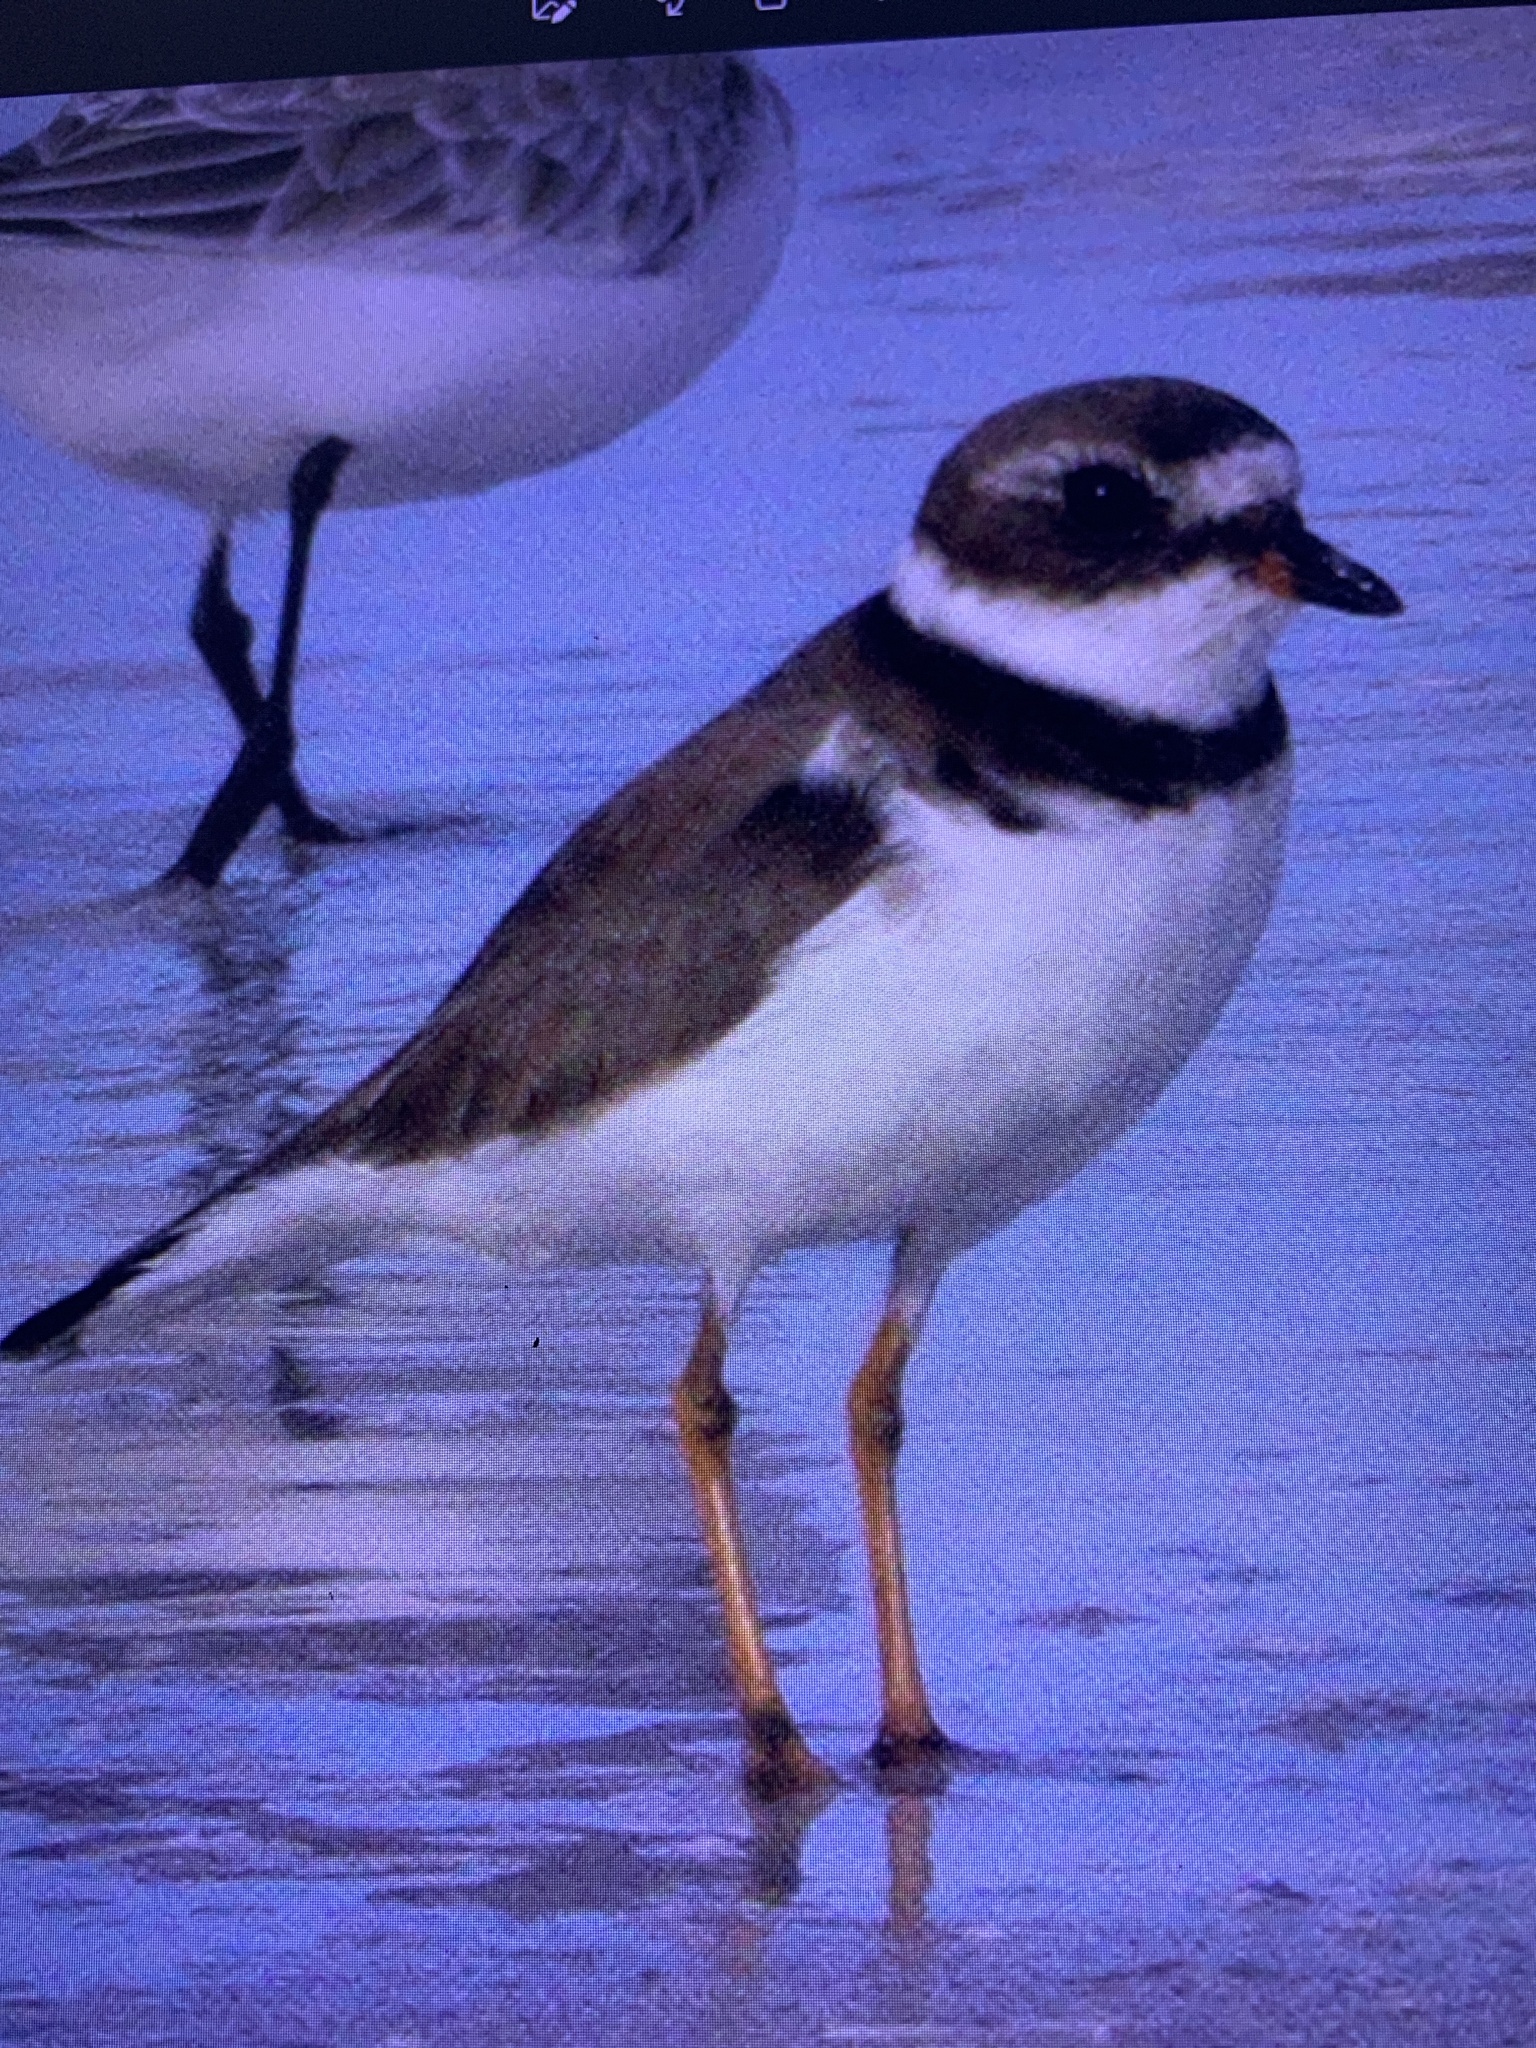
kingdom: Animalia
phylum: Chordata
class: Aves
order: Charadriiformes
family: Charadriidae
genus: Charadrius
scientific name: Charadrius semipalmatus
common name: Semipalmated plover
